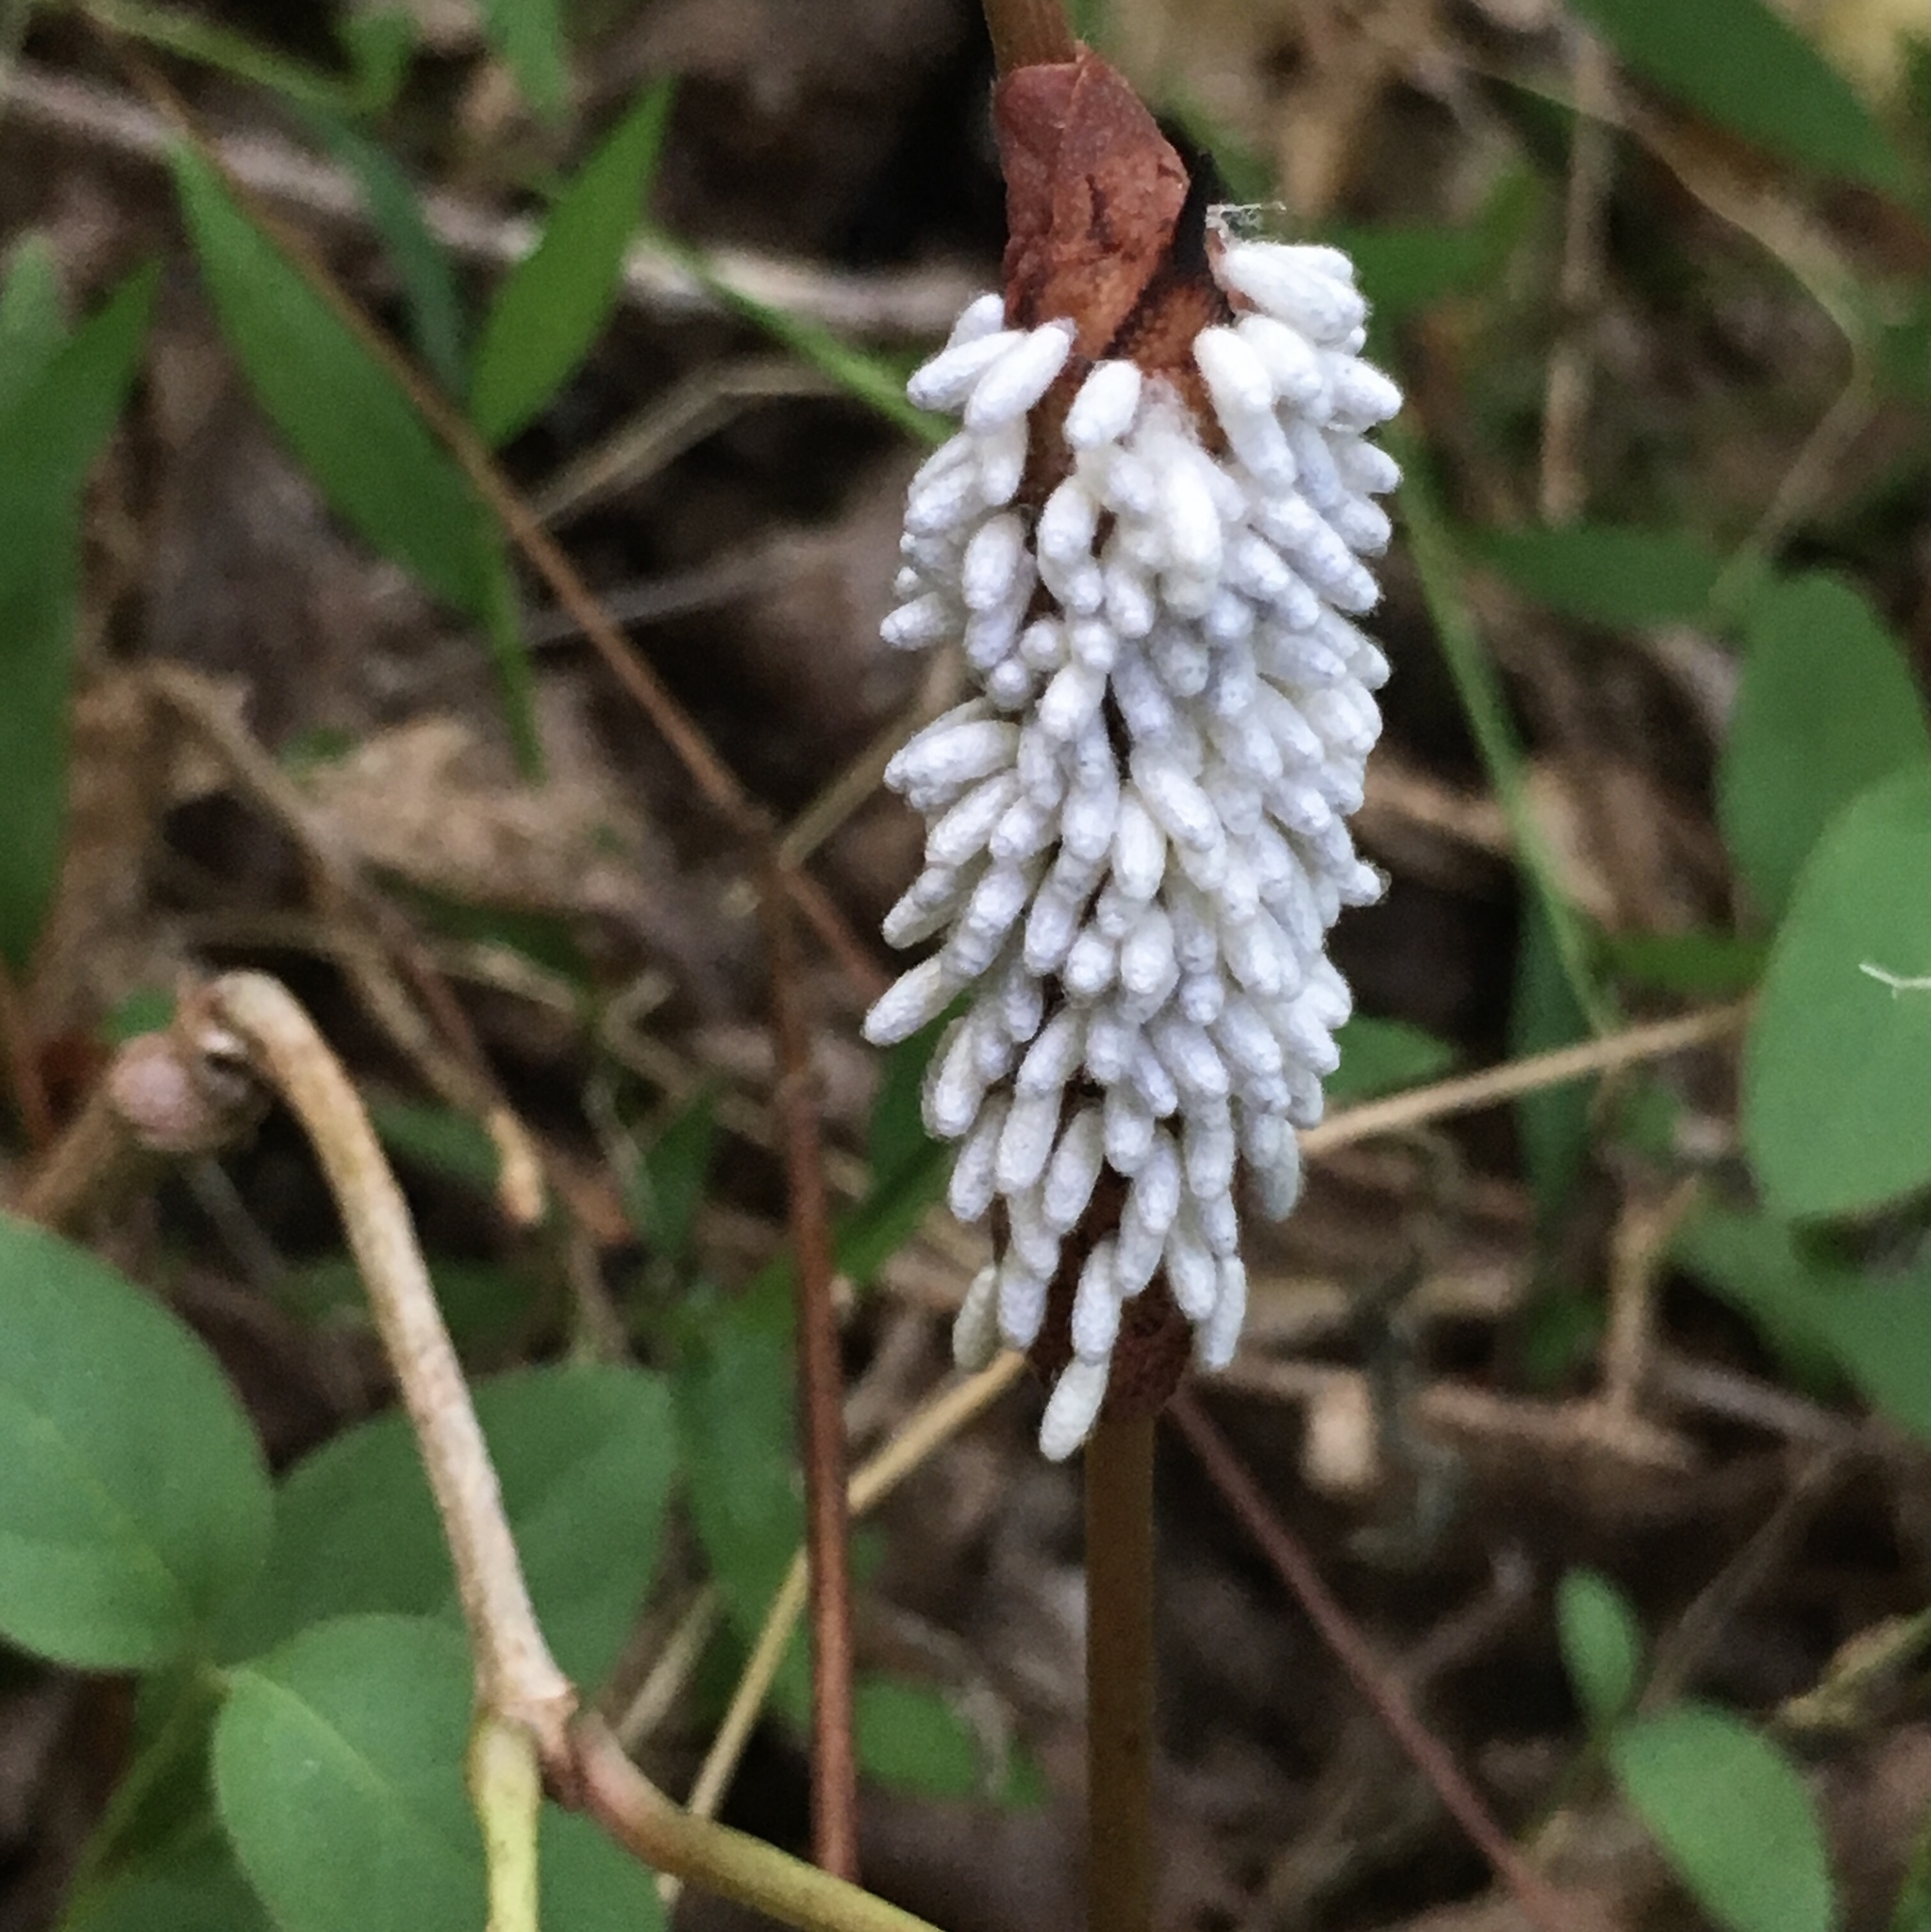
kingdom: Animalia
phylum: Arthropoda
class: Insecta
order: Hymenoptera
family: Braconidae
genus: Cotesia
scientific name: Cotesia congregata
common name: Hornworm parasitoid wasp
